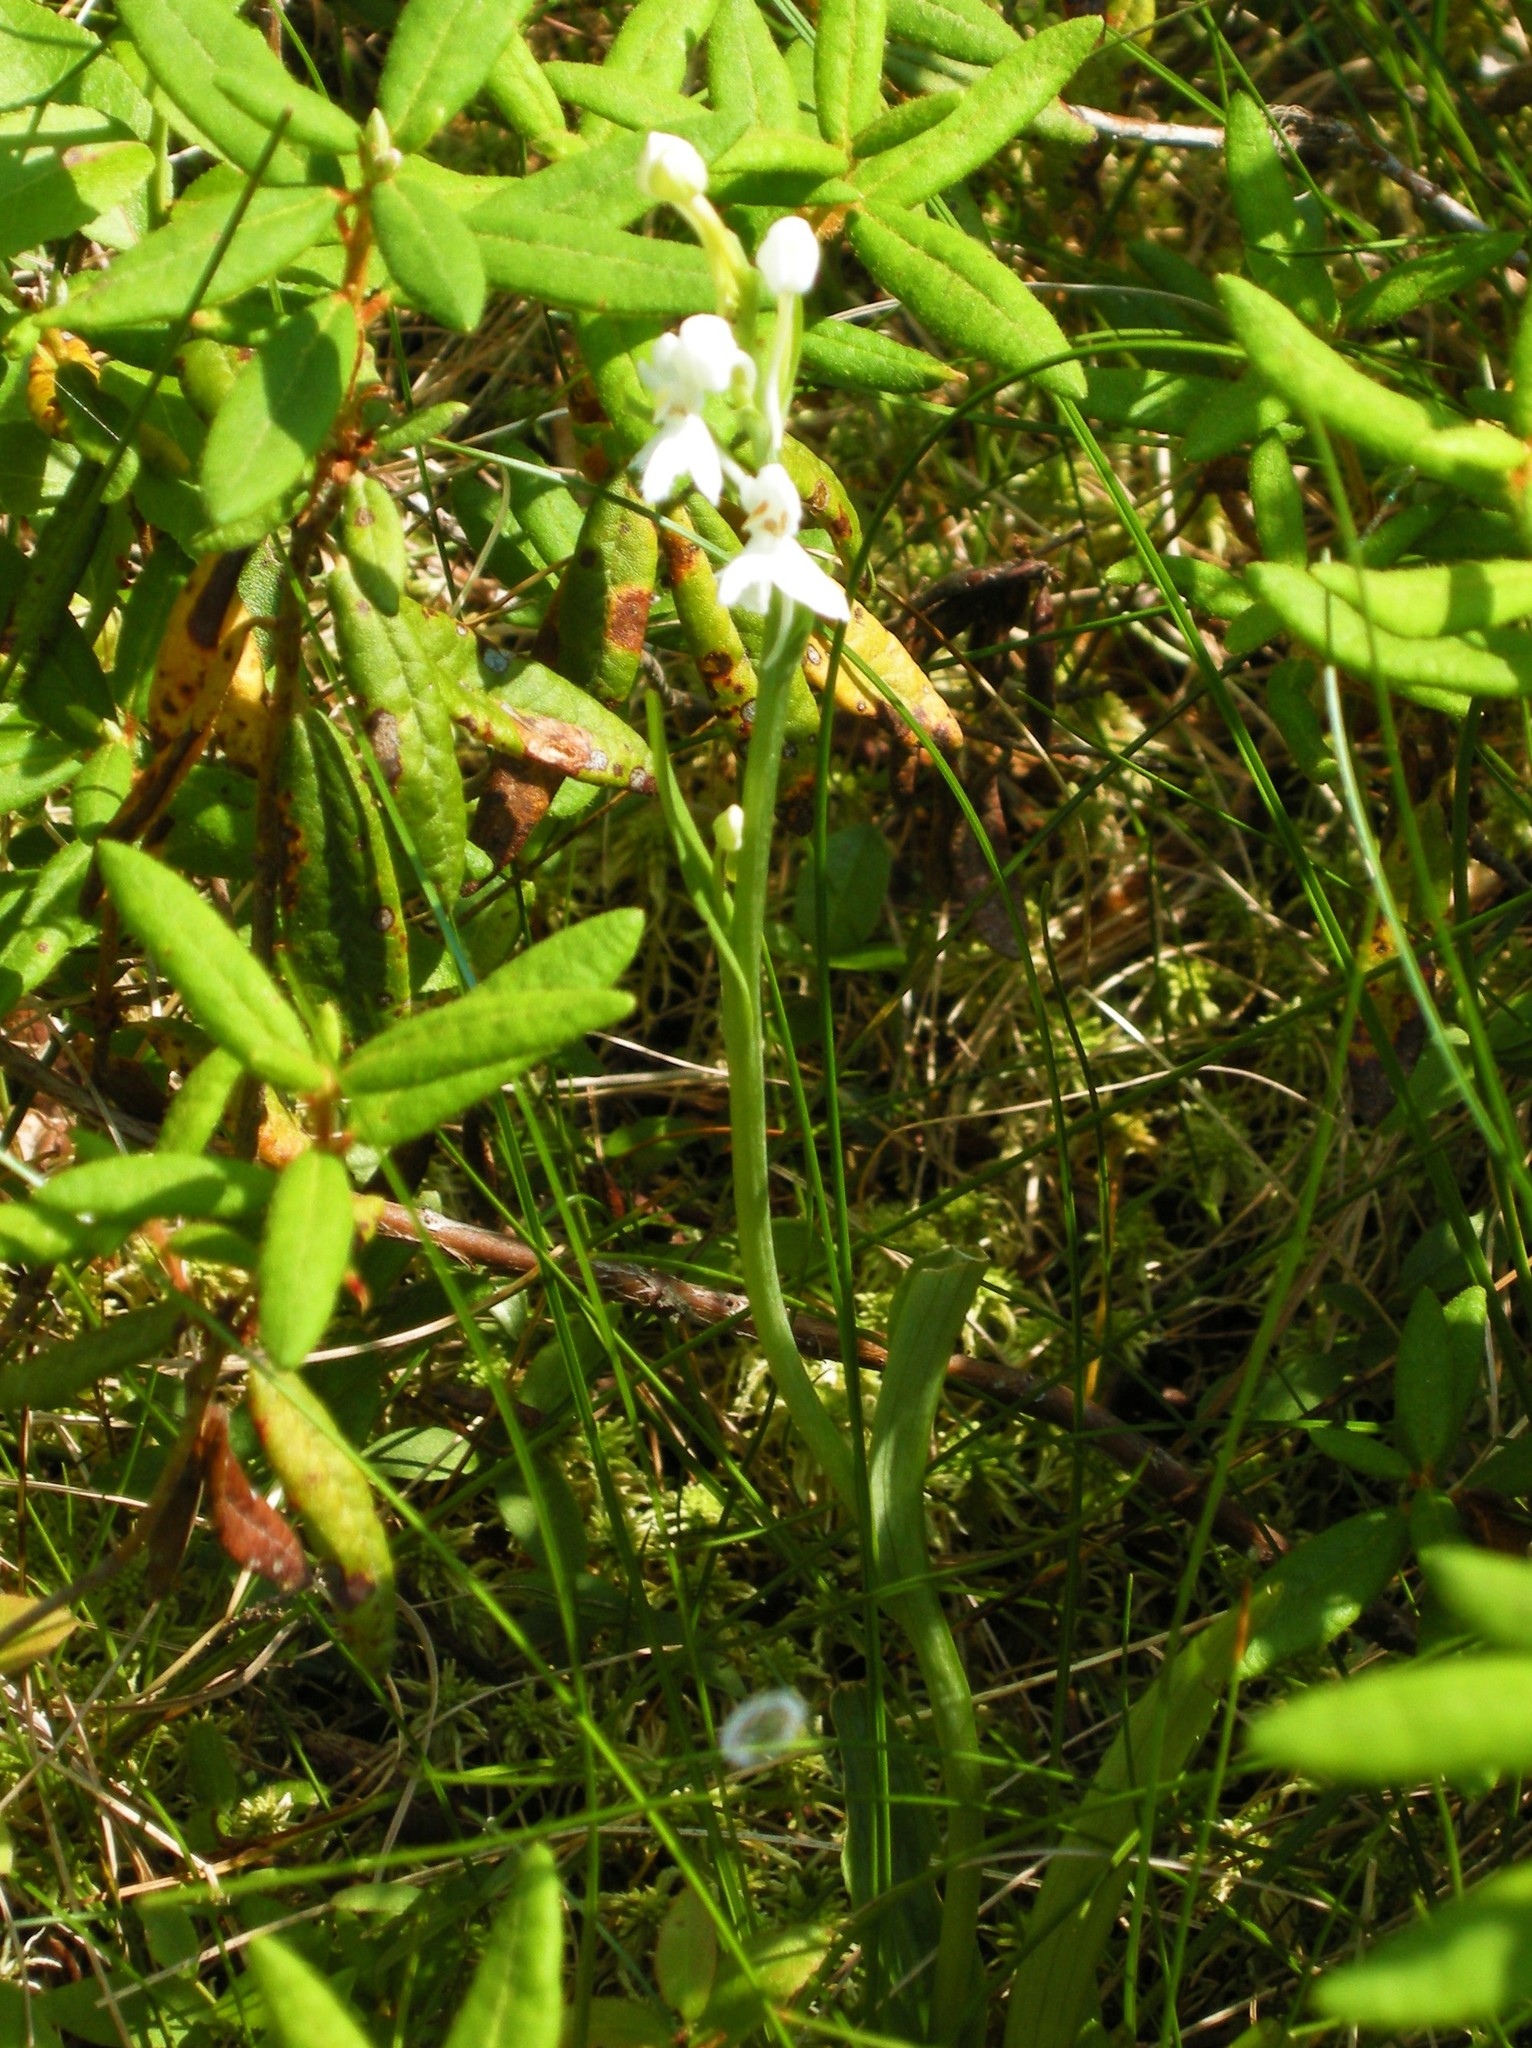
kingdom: Plantae
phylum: Tracheophyta
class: Liliopsida
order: Asparagales
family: Orchidaceae
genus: Platanthera
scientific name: Platanthera blephariglottis
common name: White fringed orchid
